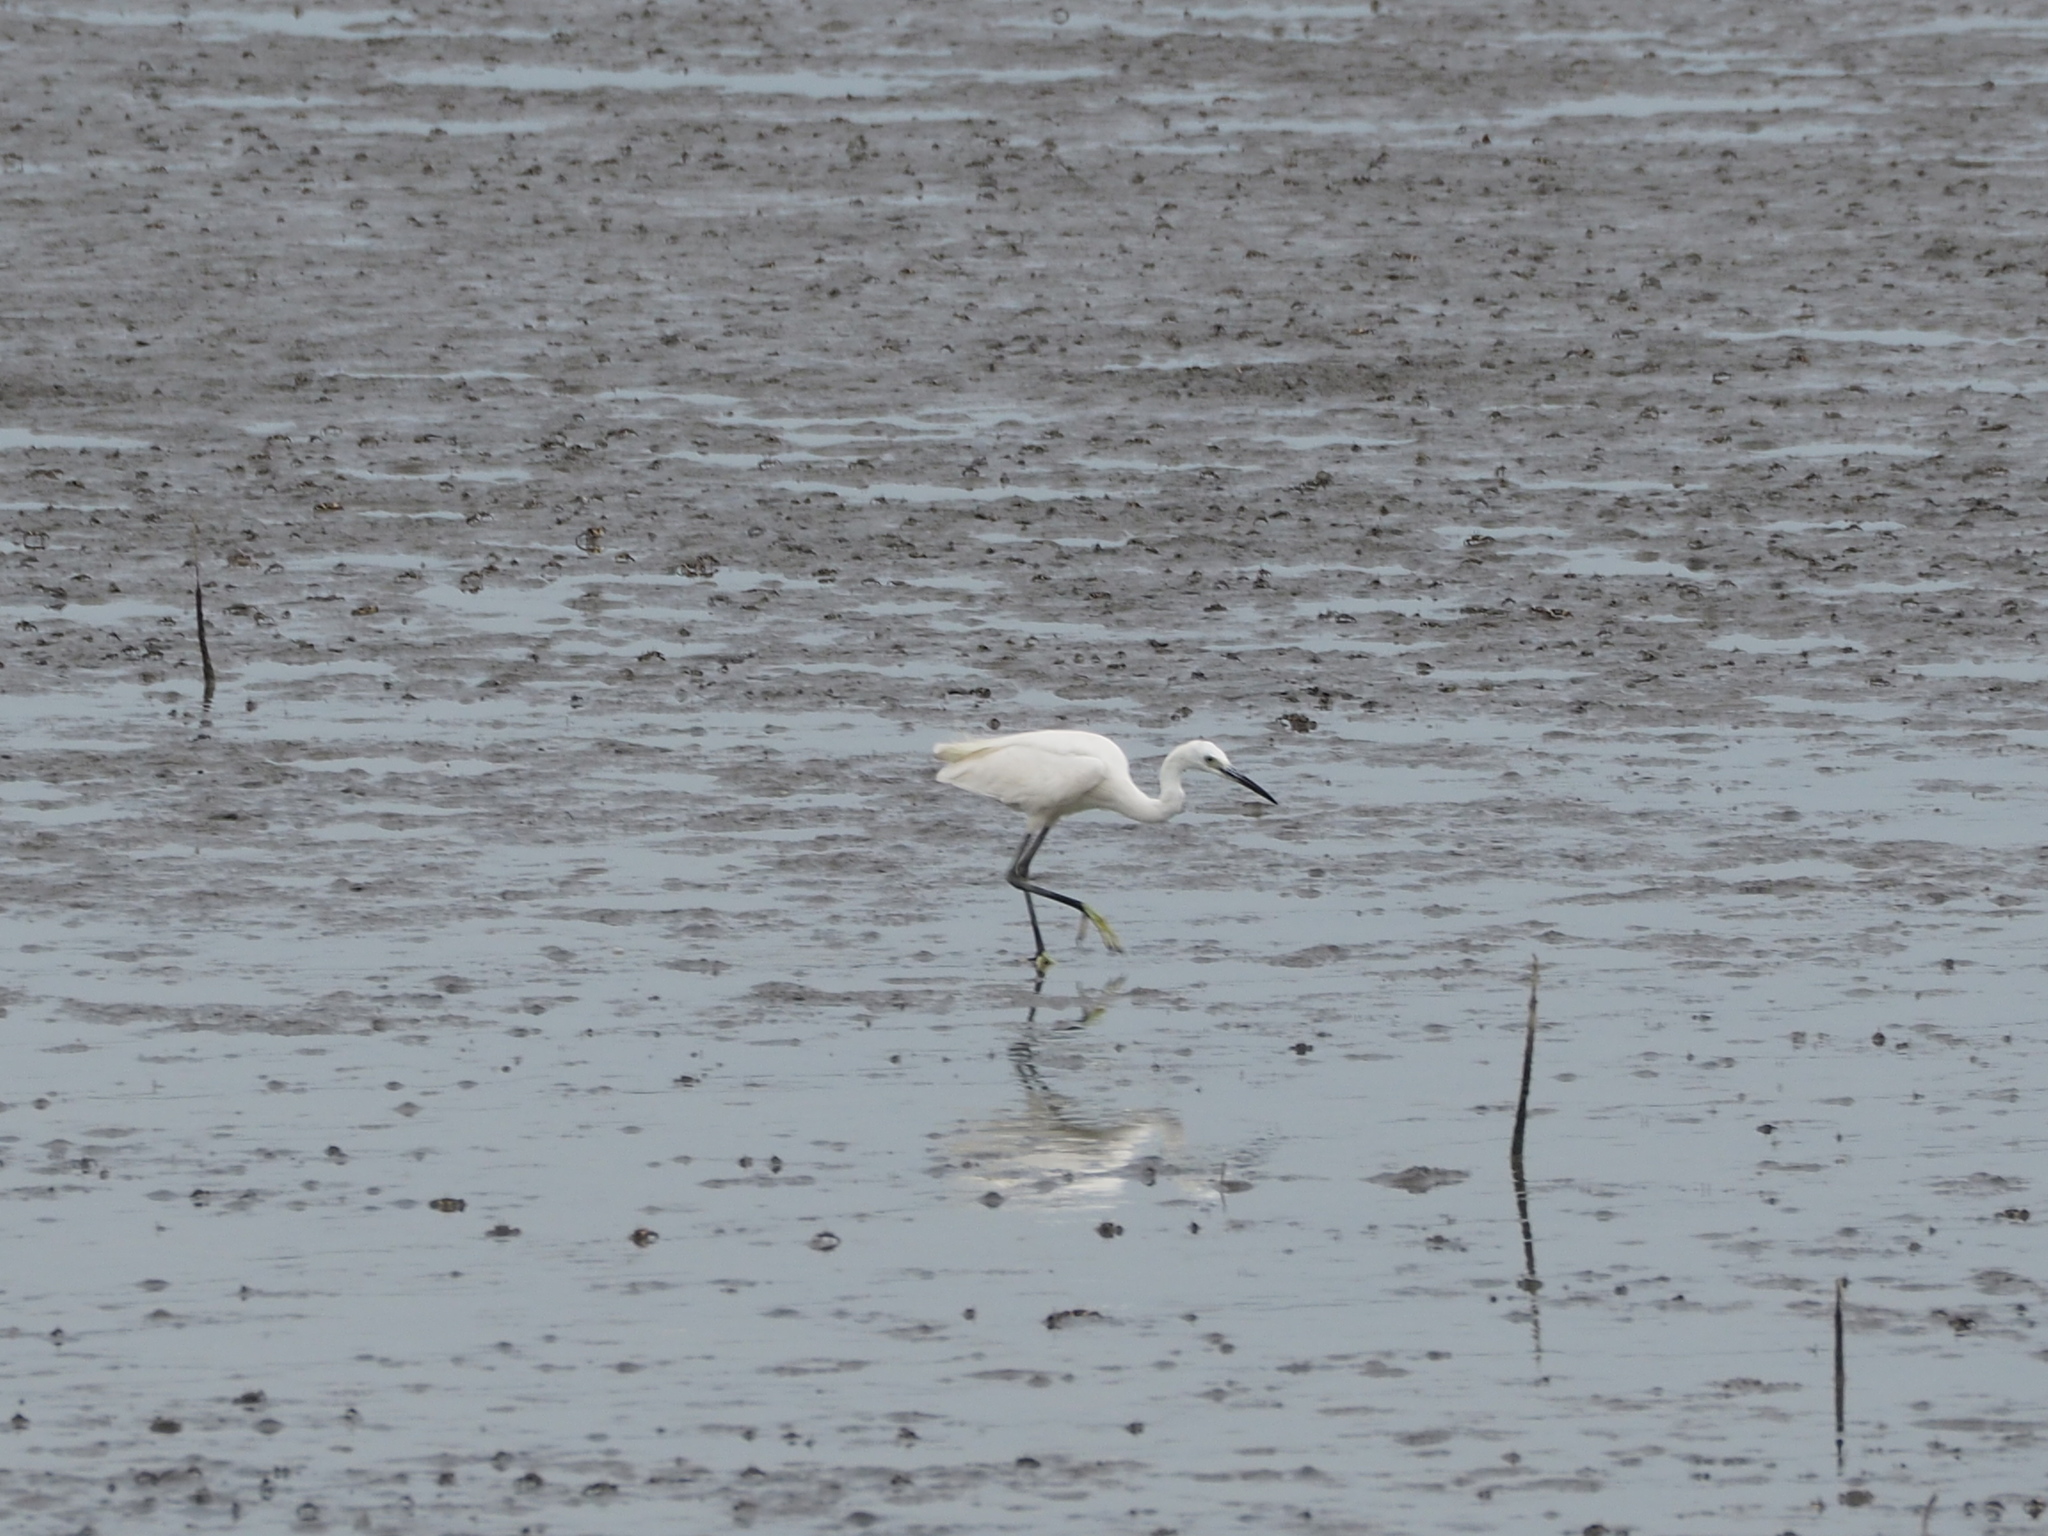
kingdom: Animalia
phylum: Chordata
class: Aves
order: Pelecaniformes
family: Ardeidae
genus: Egretta
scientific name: Egretta garzetta
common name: Little egret
